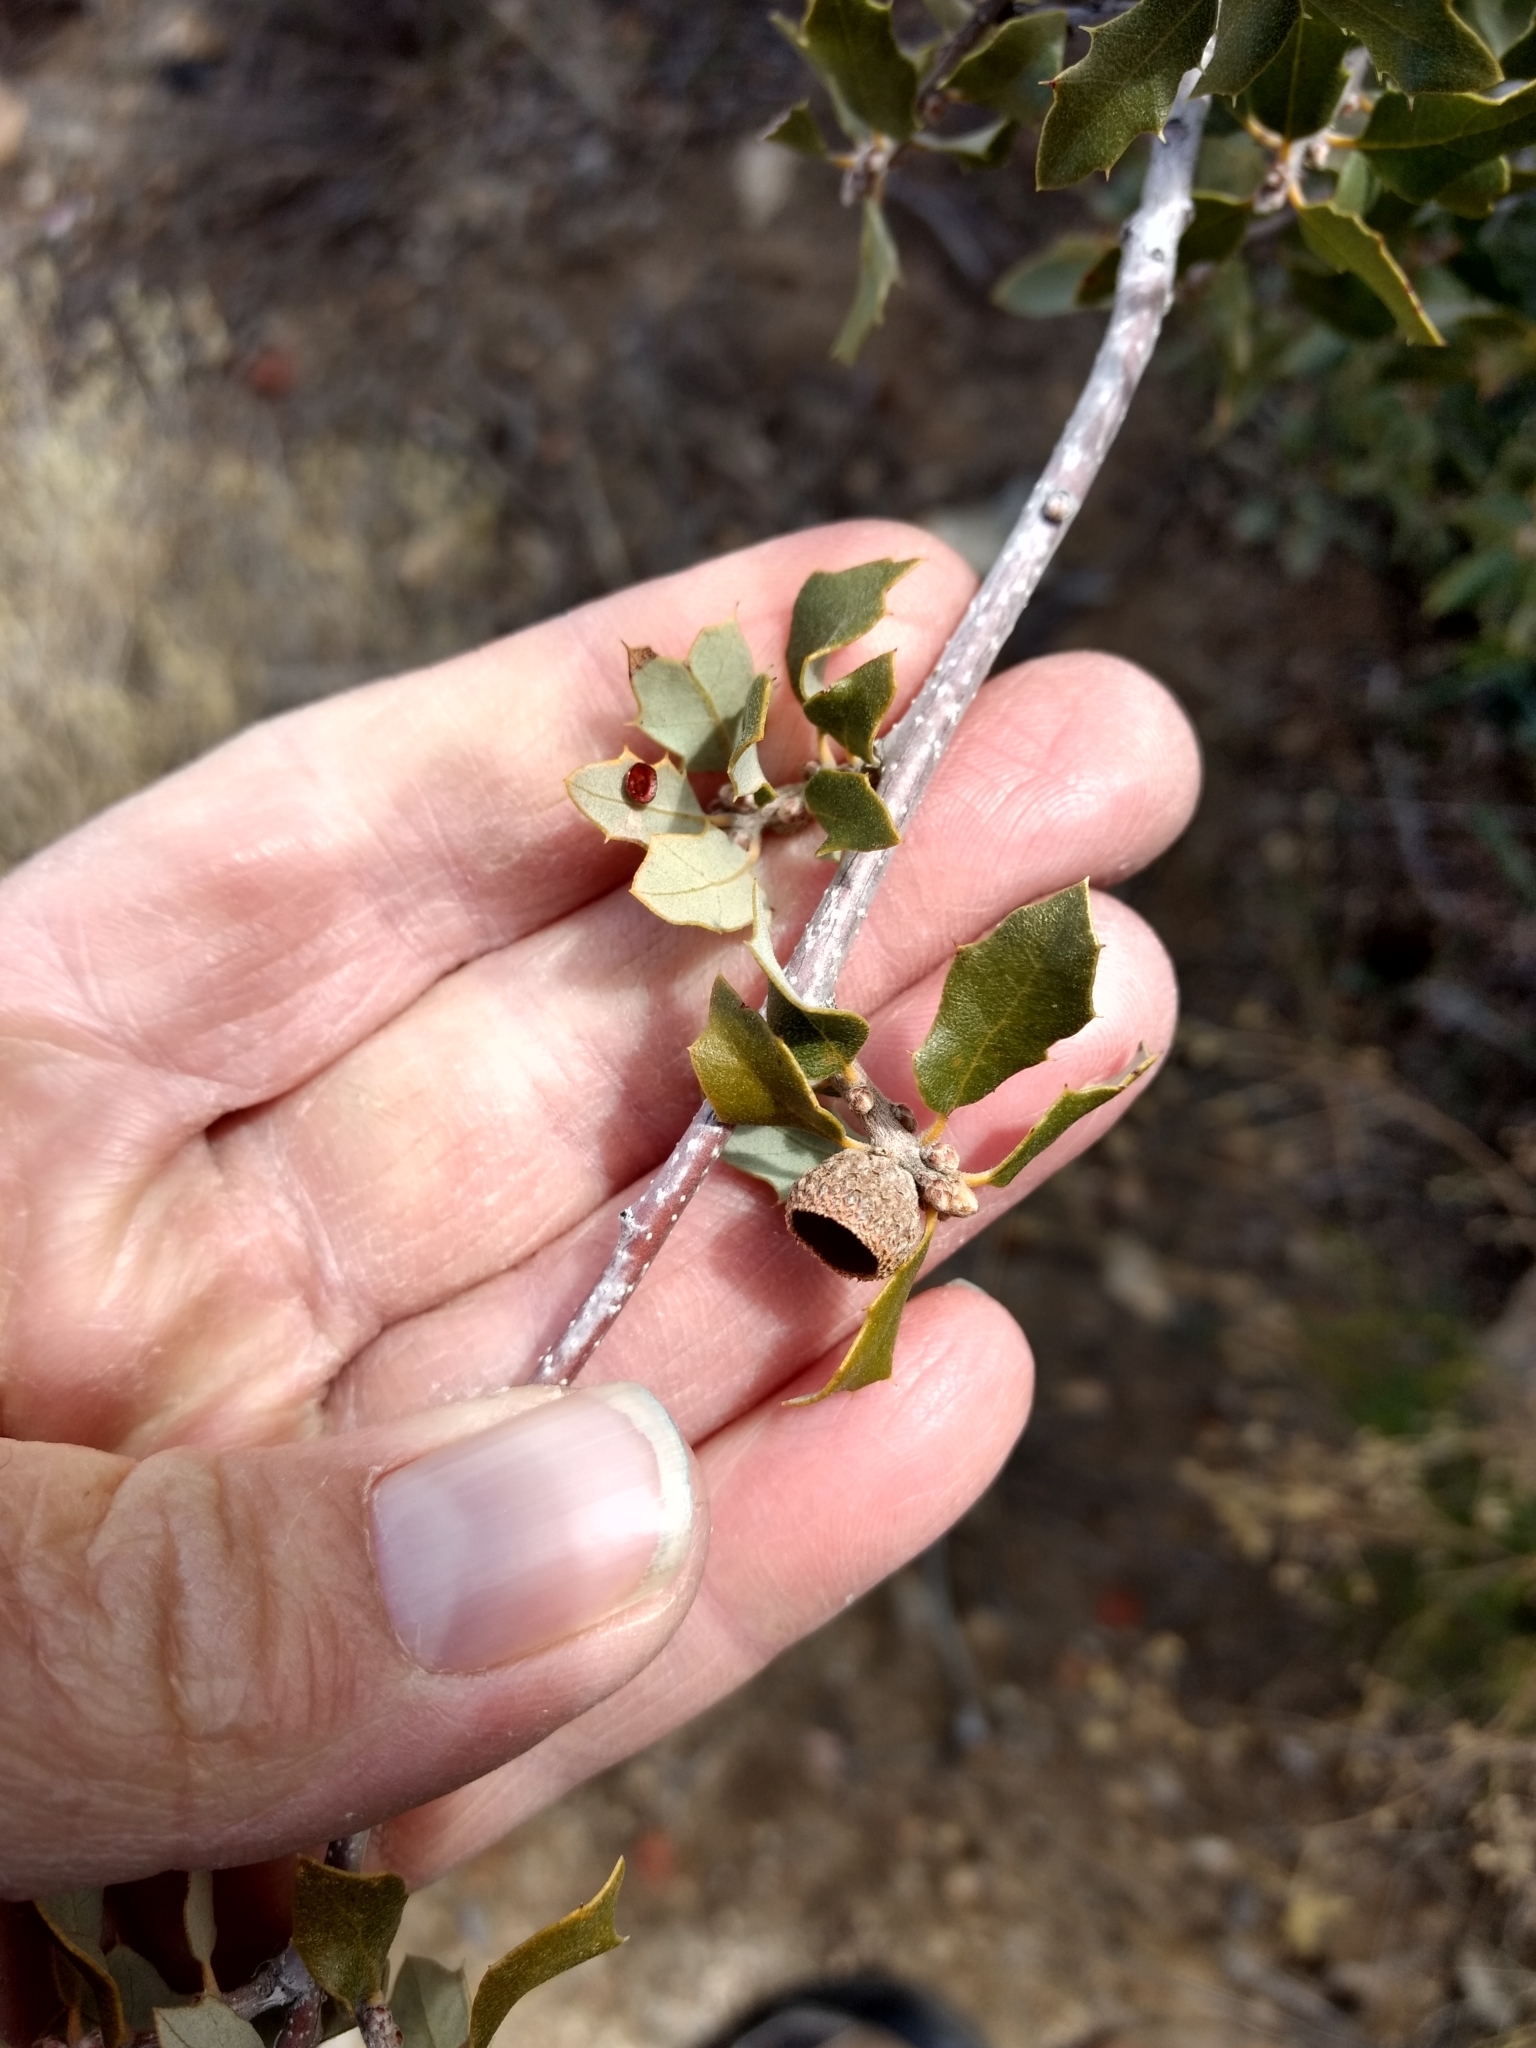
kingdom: Plantae
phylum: Tracheophyta
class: Magnoliopsida
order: Fagales
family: Fagaceae
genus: Quercus
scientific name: Quercus cornelius-mulleri
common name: Muller oak
